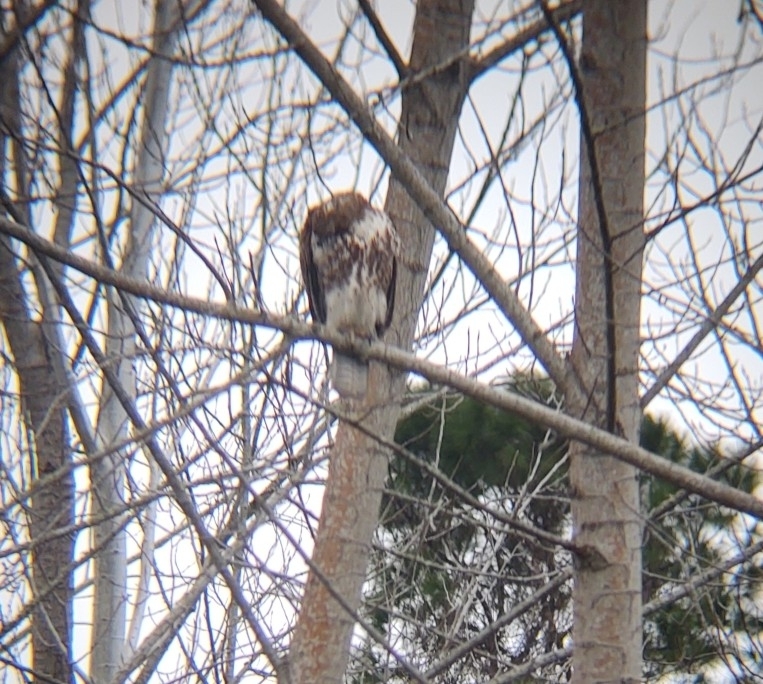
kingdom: Animalia
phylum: Chordata
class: Aves
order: Accipitriformes
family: Accipitridae
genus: Buteo
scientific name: Buteo jamaicensis
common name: Red-tailed hawk
